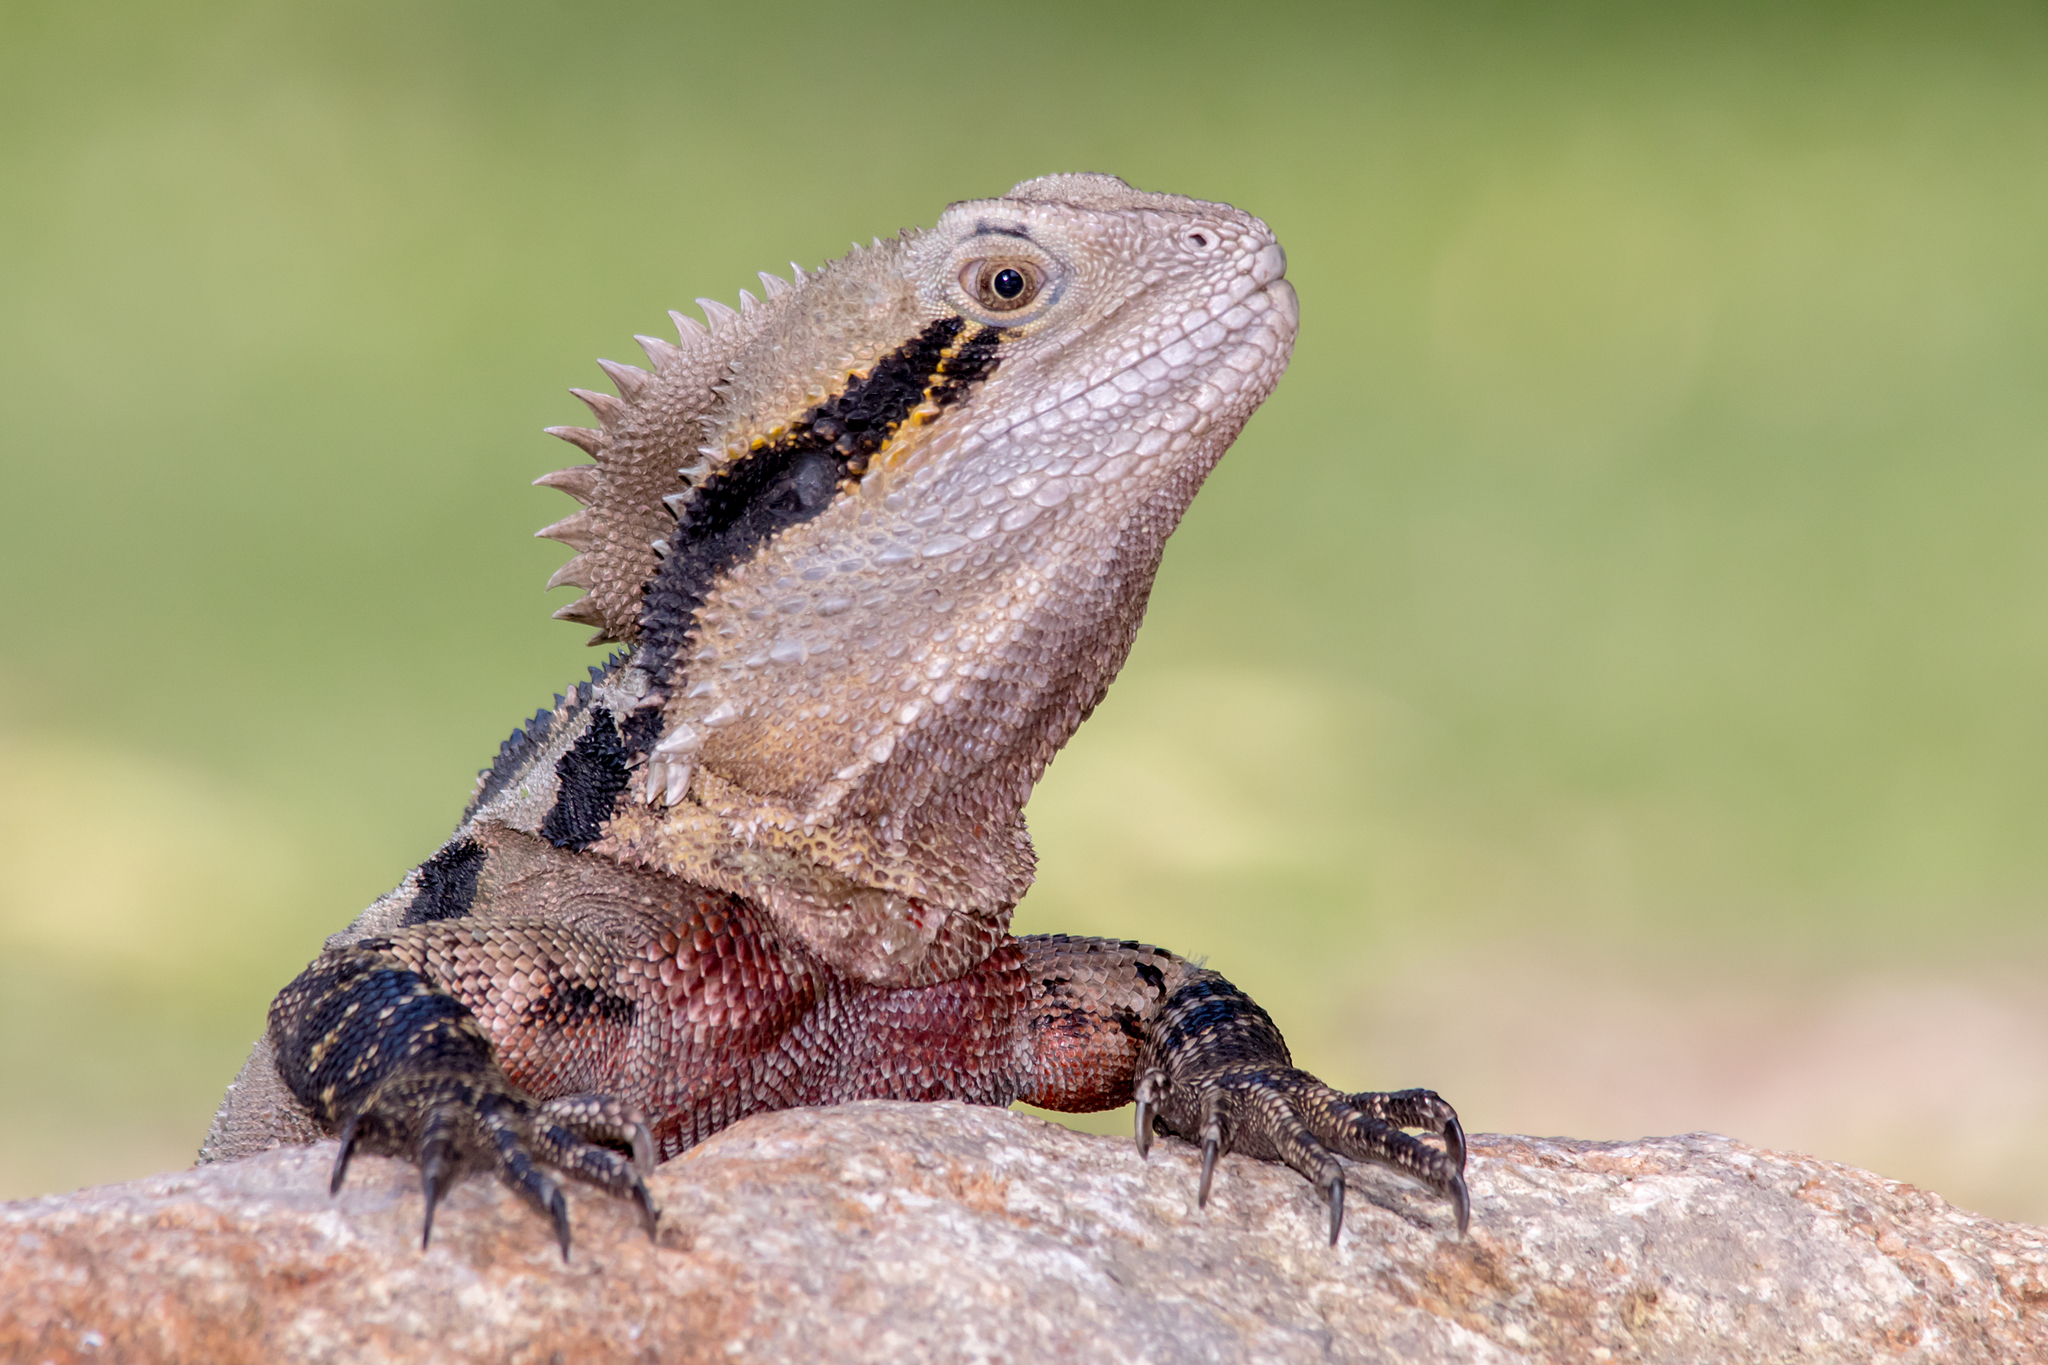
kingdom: Animalia
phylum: Chordata
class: Squamata
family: Agamidae
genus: Intellagama
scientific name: Intellagama lesueurii
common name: Eastern water dragon
